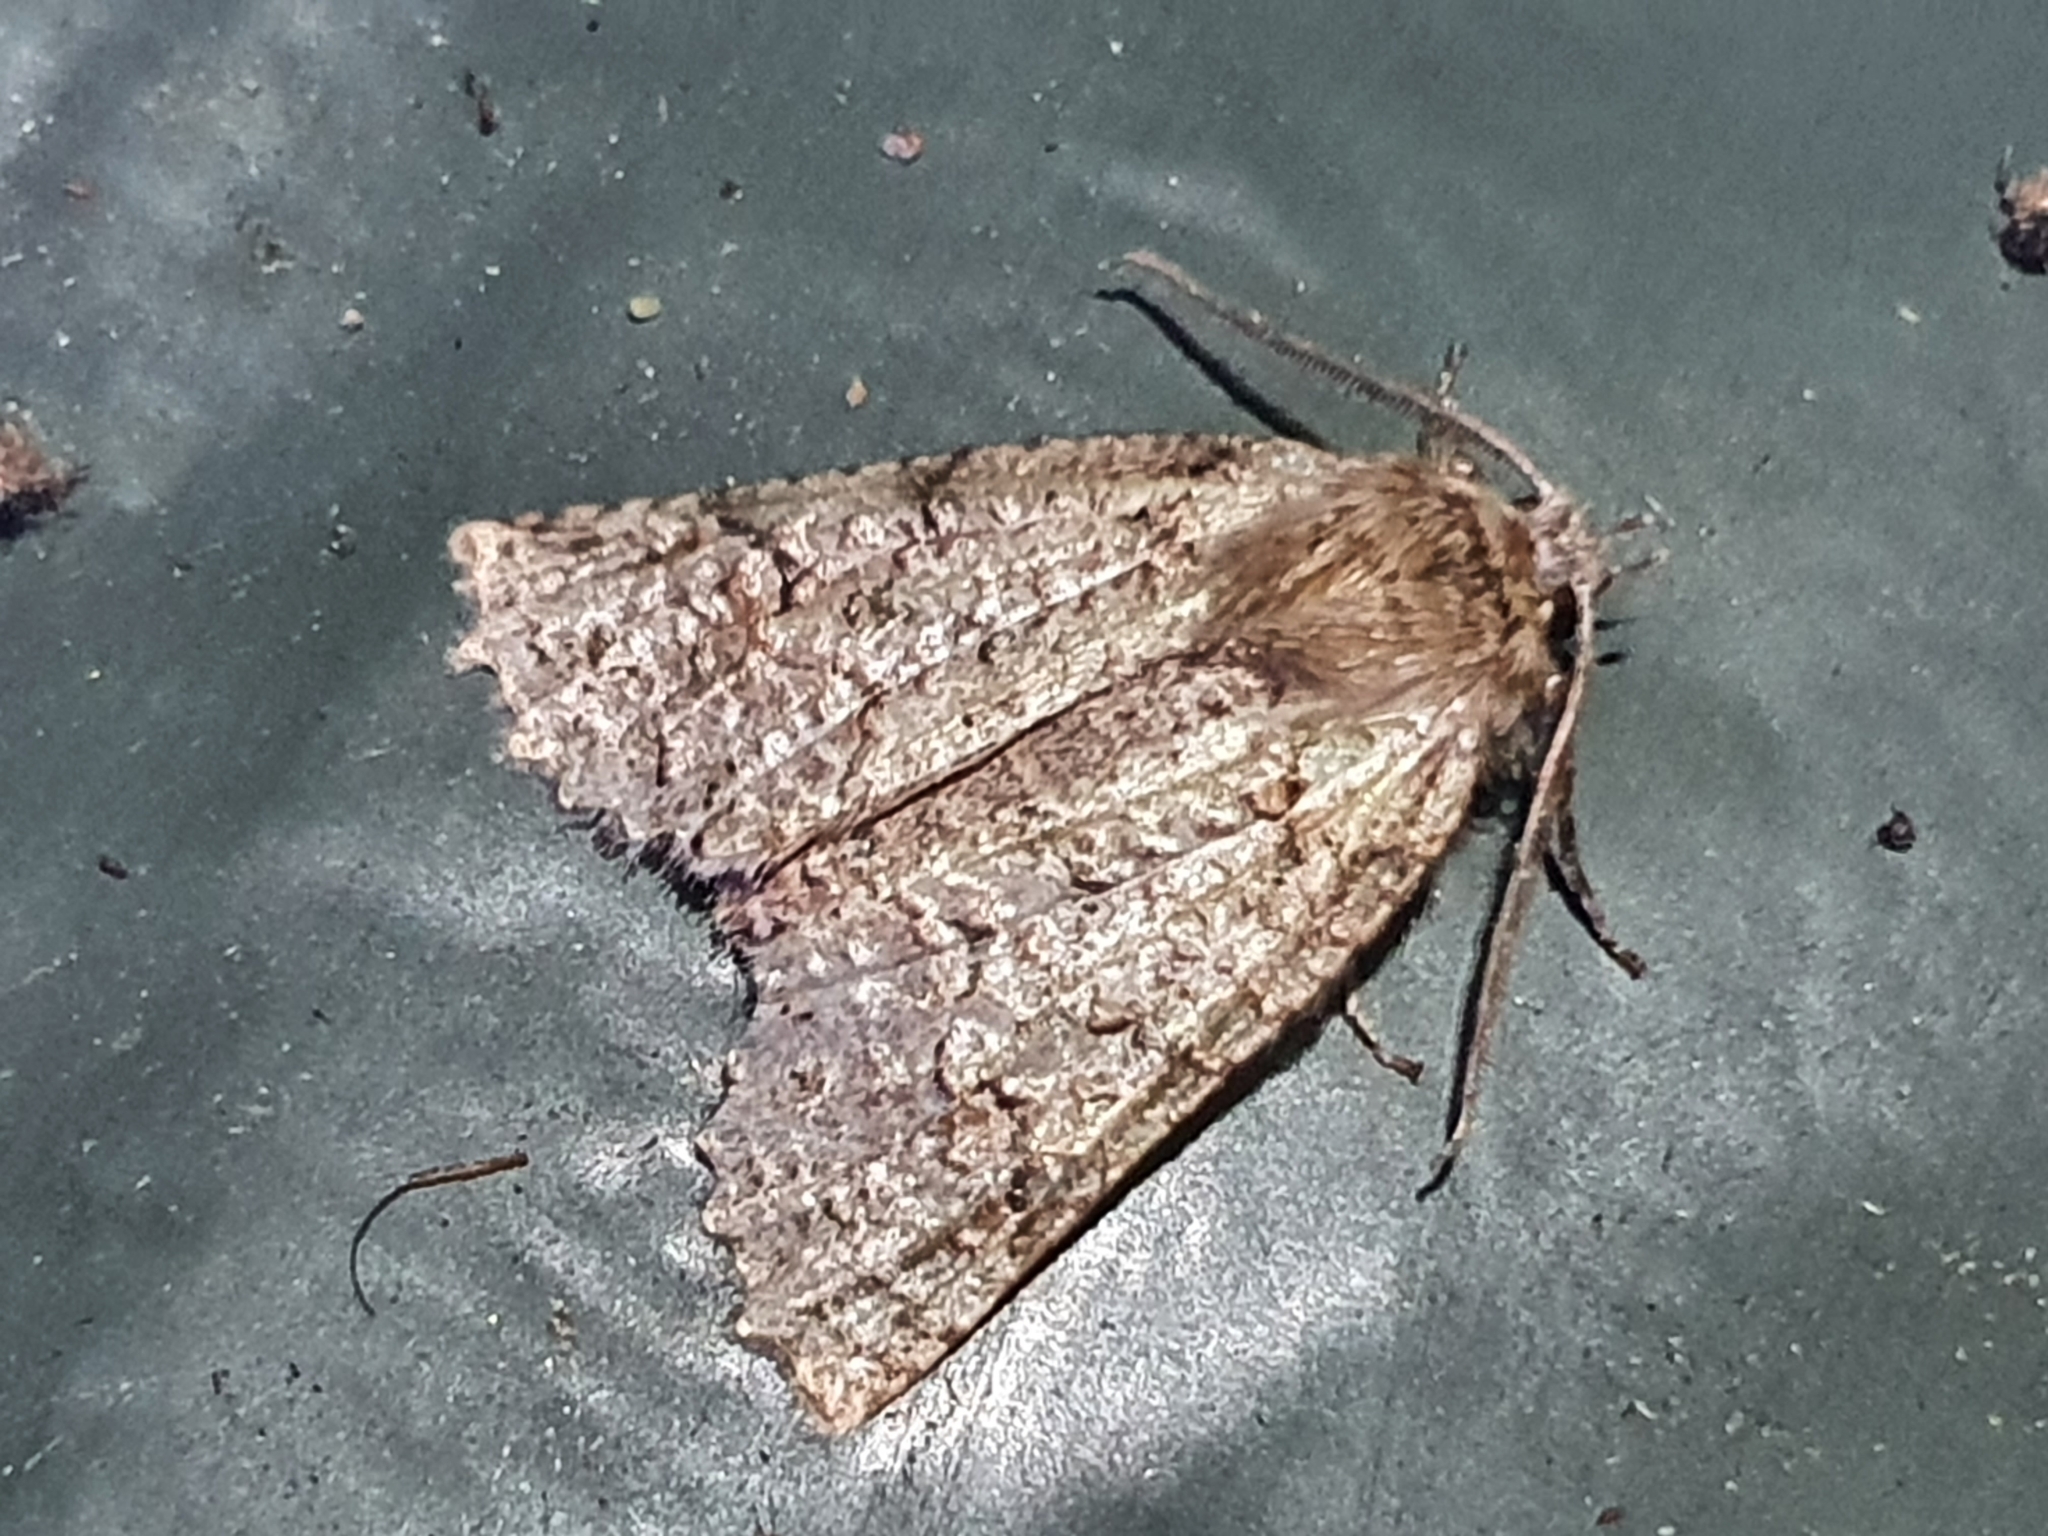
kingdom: Animalia
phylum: Arthropoda
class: Insecta
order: Lepidoptera
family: Geometridae
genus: Declana
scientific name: Declana floccosa
